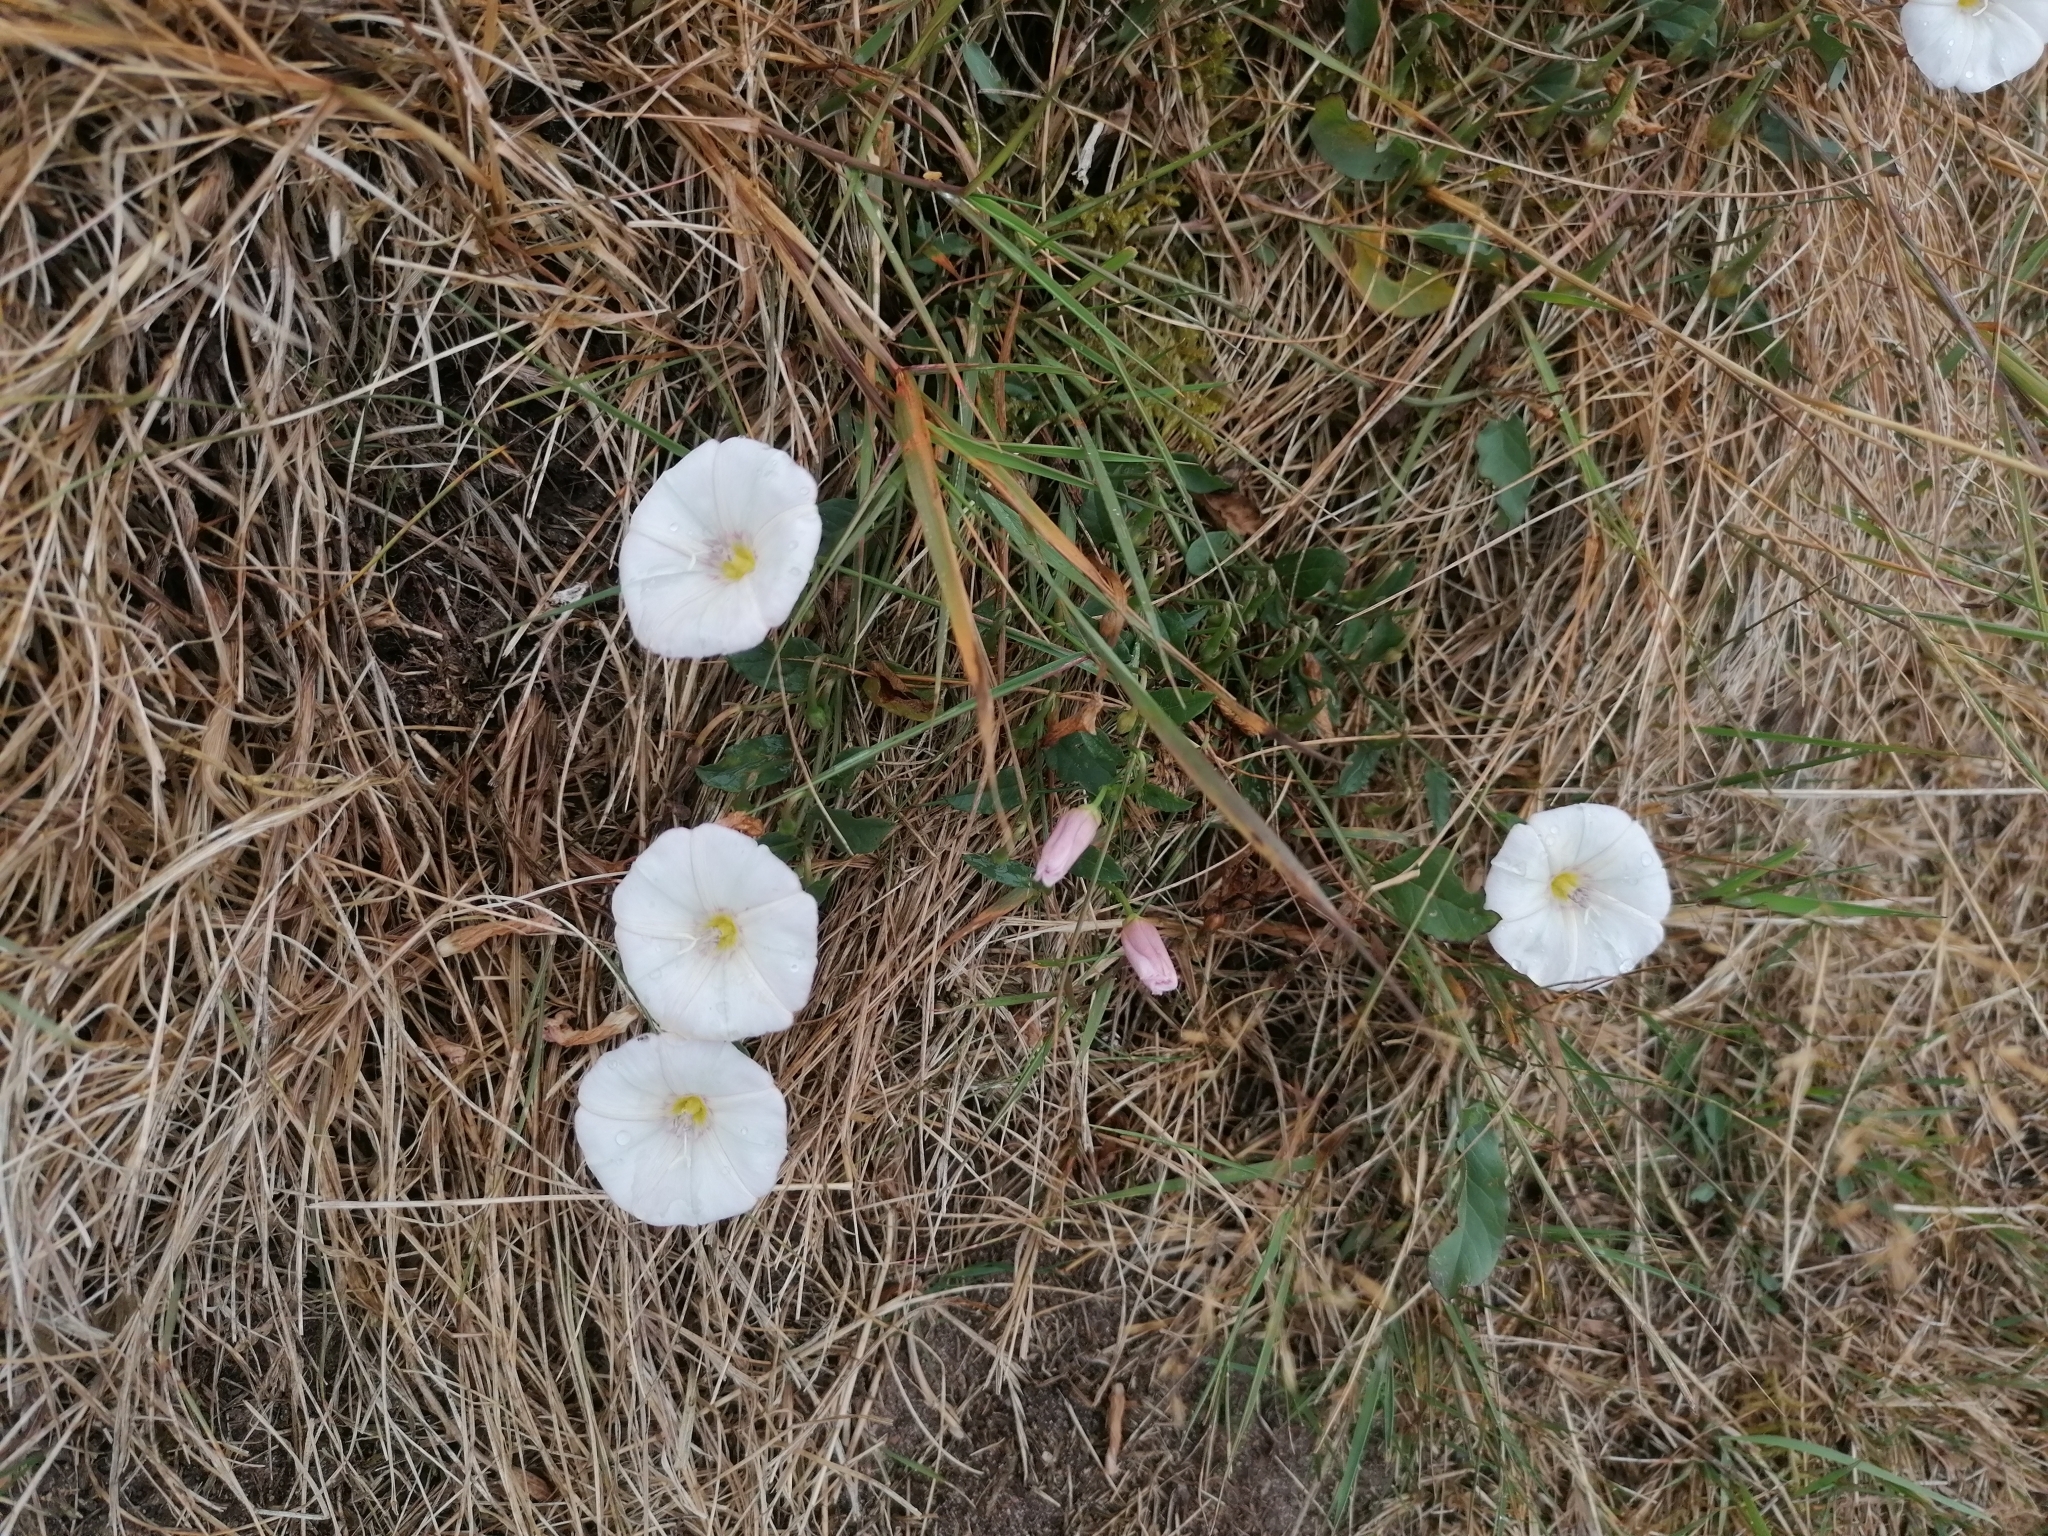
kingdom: Plantae
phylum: Tracheophyta
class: Magnoliopsida
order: Solanales
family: Convolvulaceae
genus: Convolvulus
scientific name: Convolvulus arvensis
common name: Field bindweed
